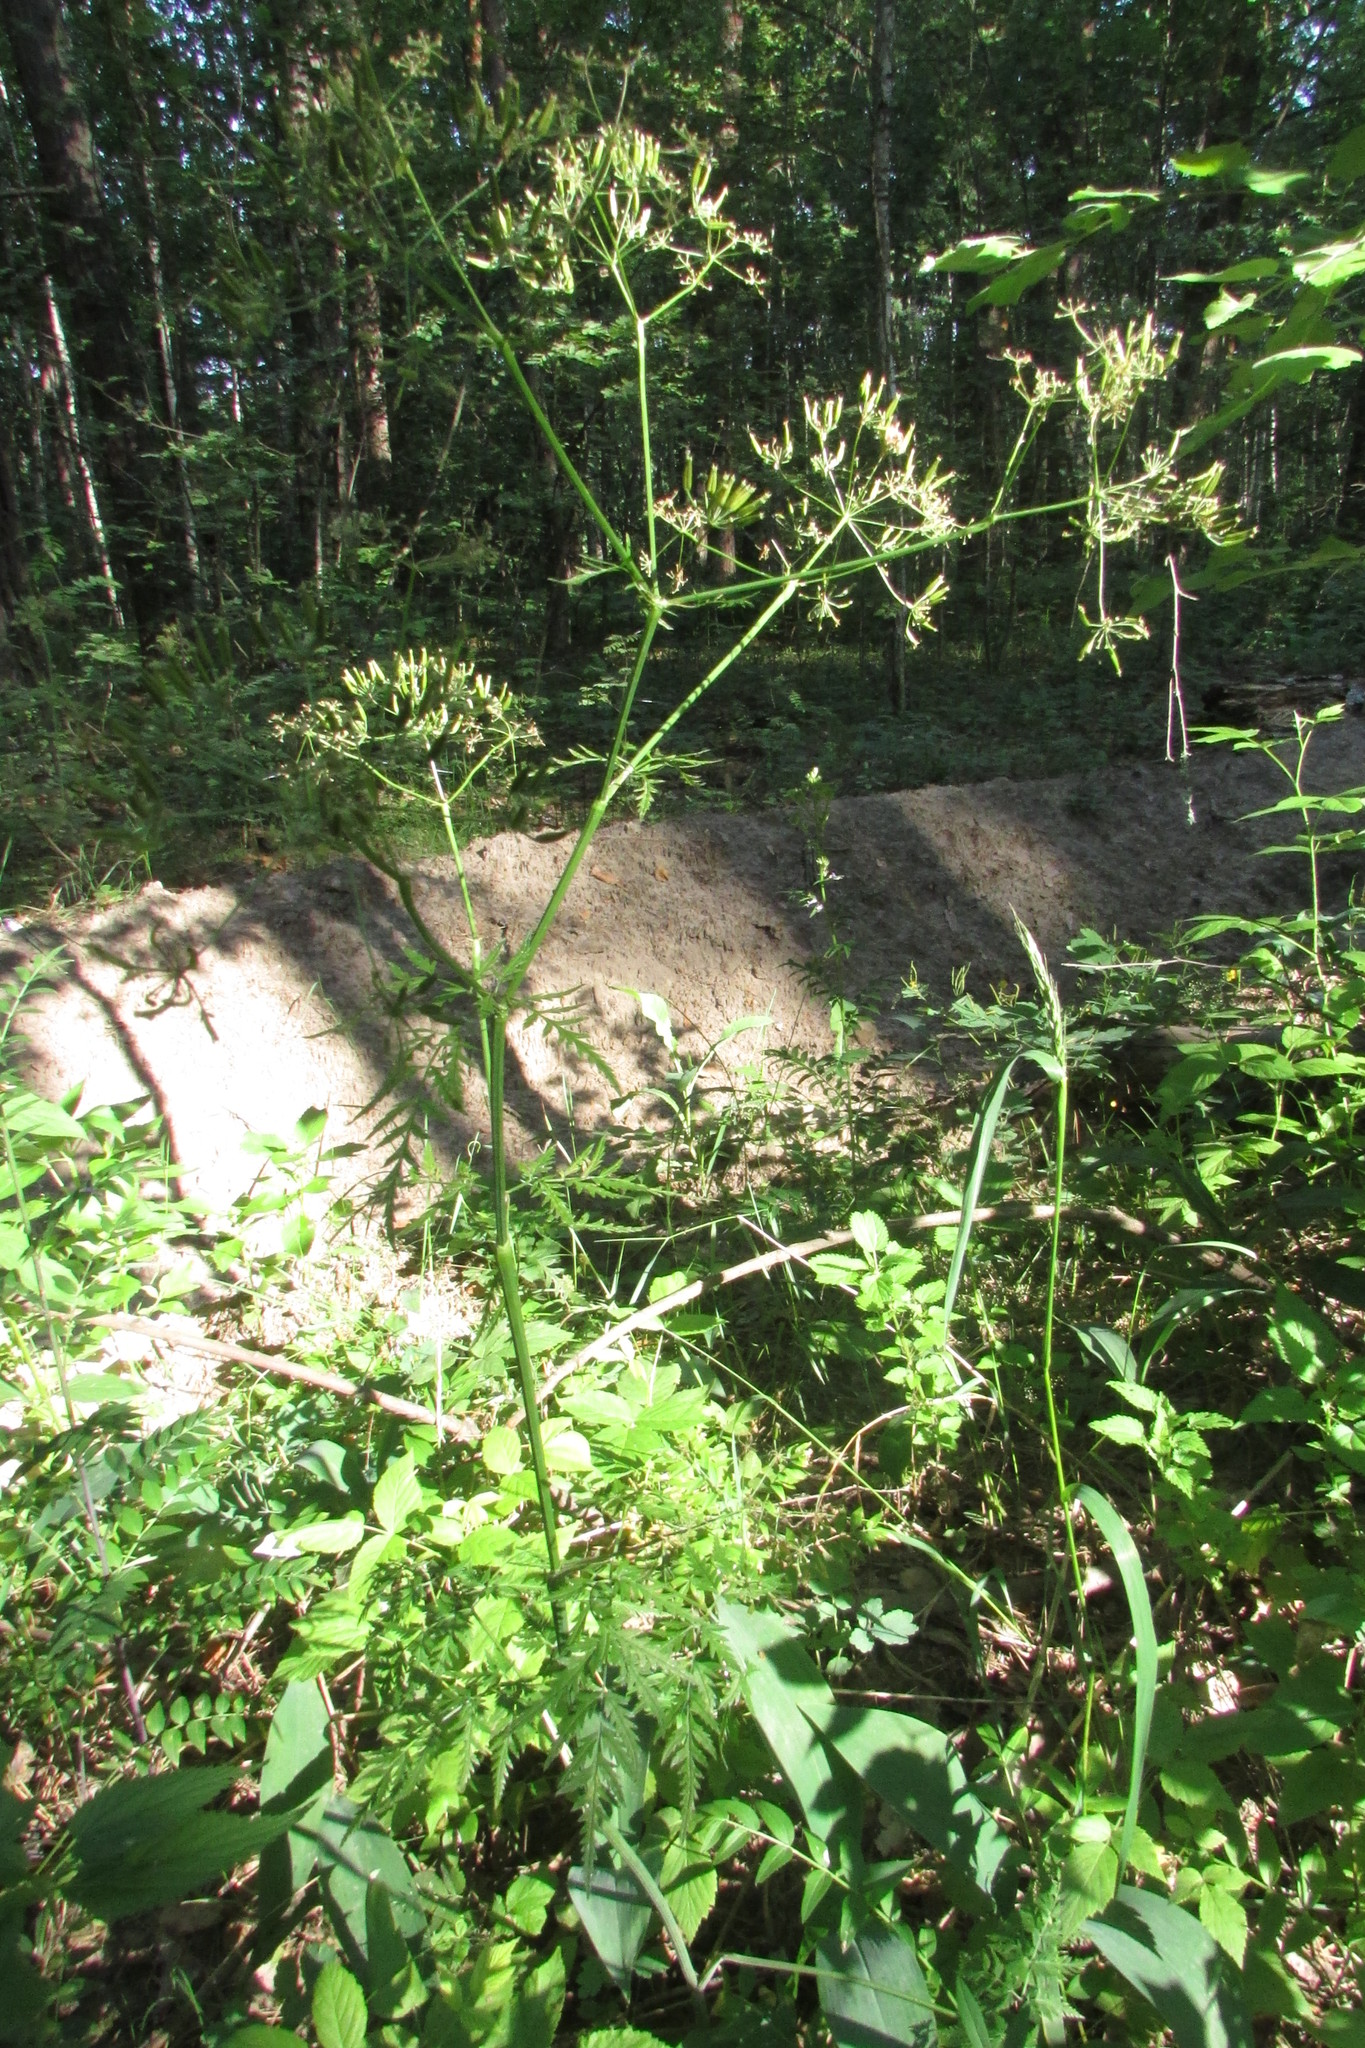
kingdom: Plantae
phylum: Tracheophyta
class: Magnoliopsida
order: Apiales
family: Apiaceae
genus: Anthriscus
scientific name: Anthriscus sylvestris
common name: Cow parsley
